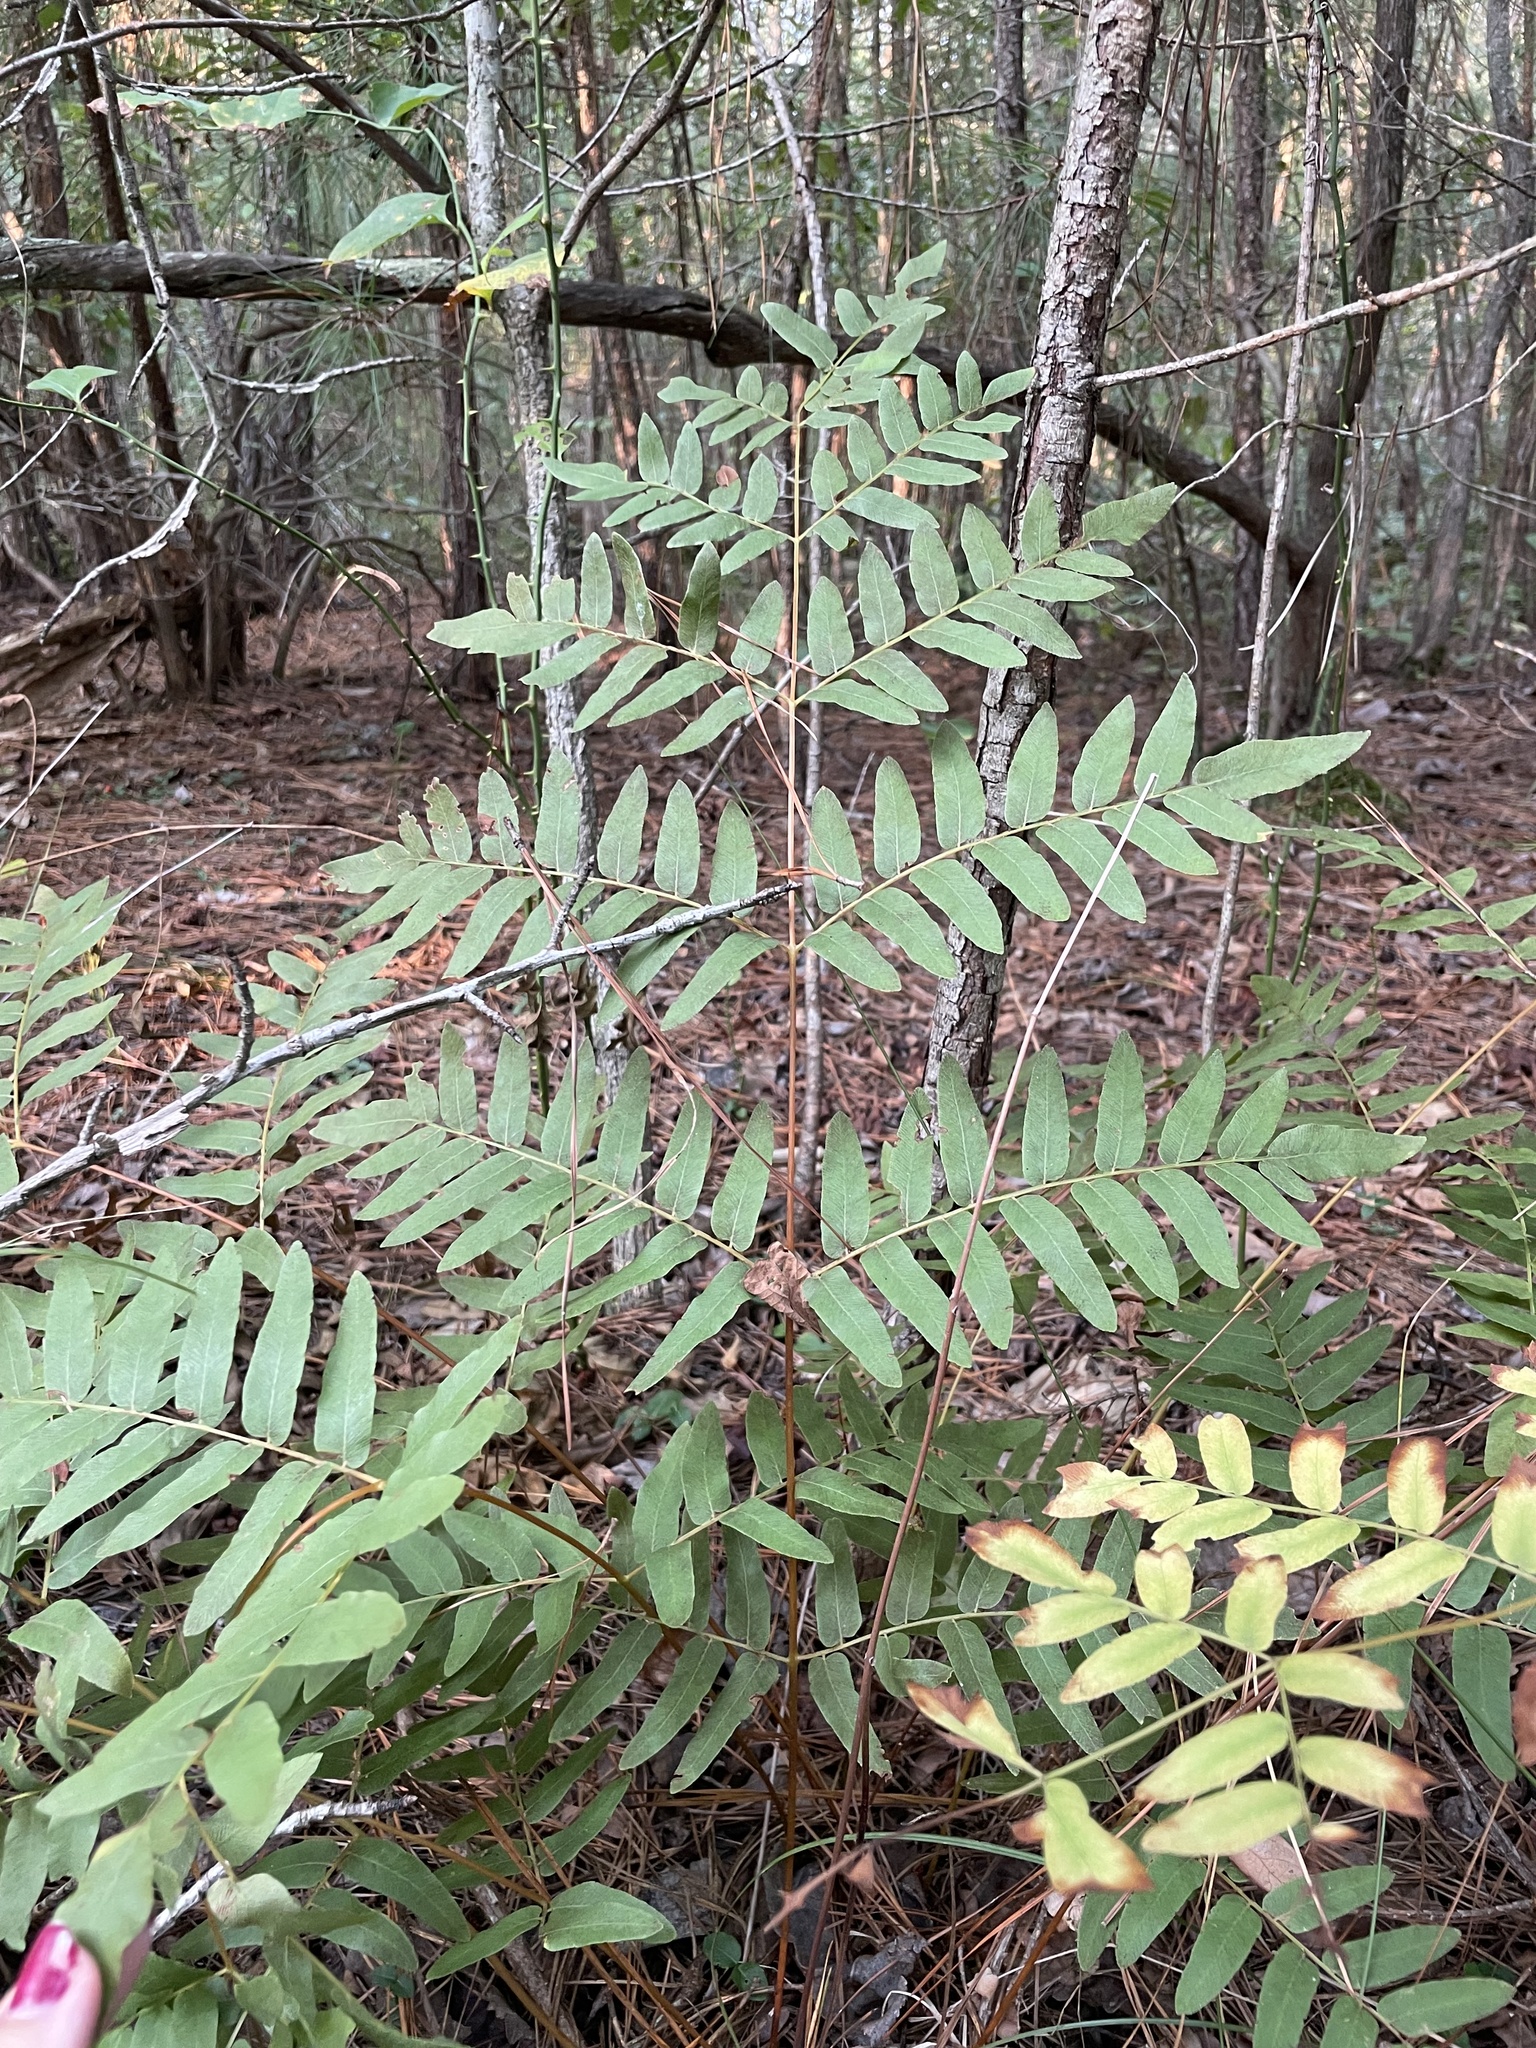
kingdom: Plantae
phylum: Tracheophyta
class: Polypodiopsida
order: Osmundales
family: Osmundaceae
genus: Osmunda
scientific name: Osmunda spectabilis
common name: American royal fern
